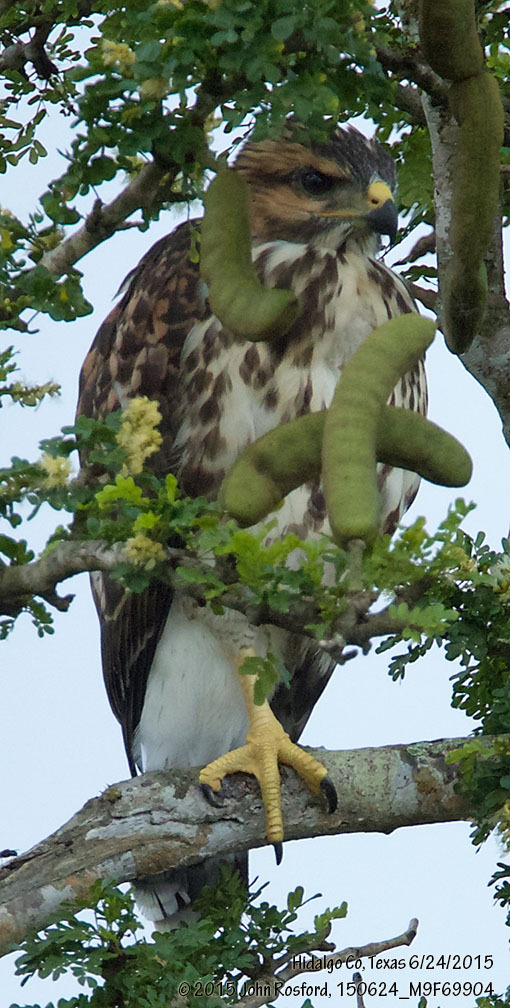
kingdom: Animalia
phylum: Chordata
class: Aves
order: Accipitriformes
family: Accipitridae
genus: Buteo
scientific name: Buteo nitidus
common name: Grey-lined hawk
